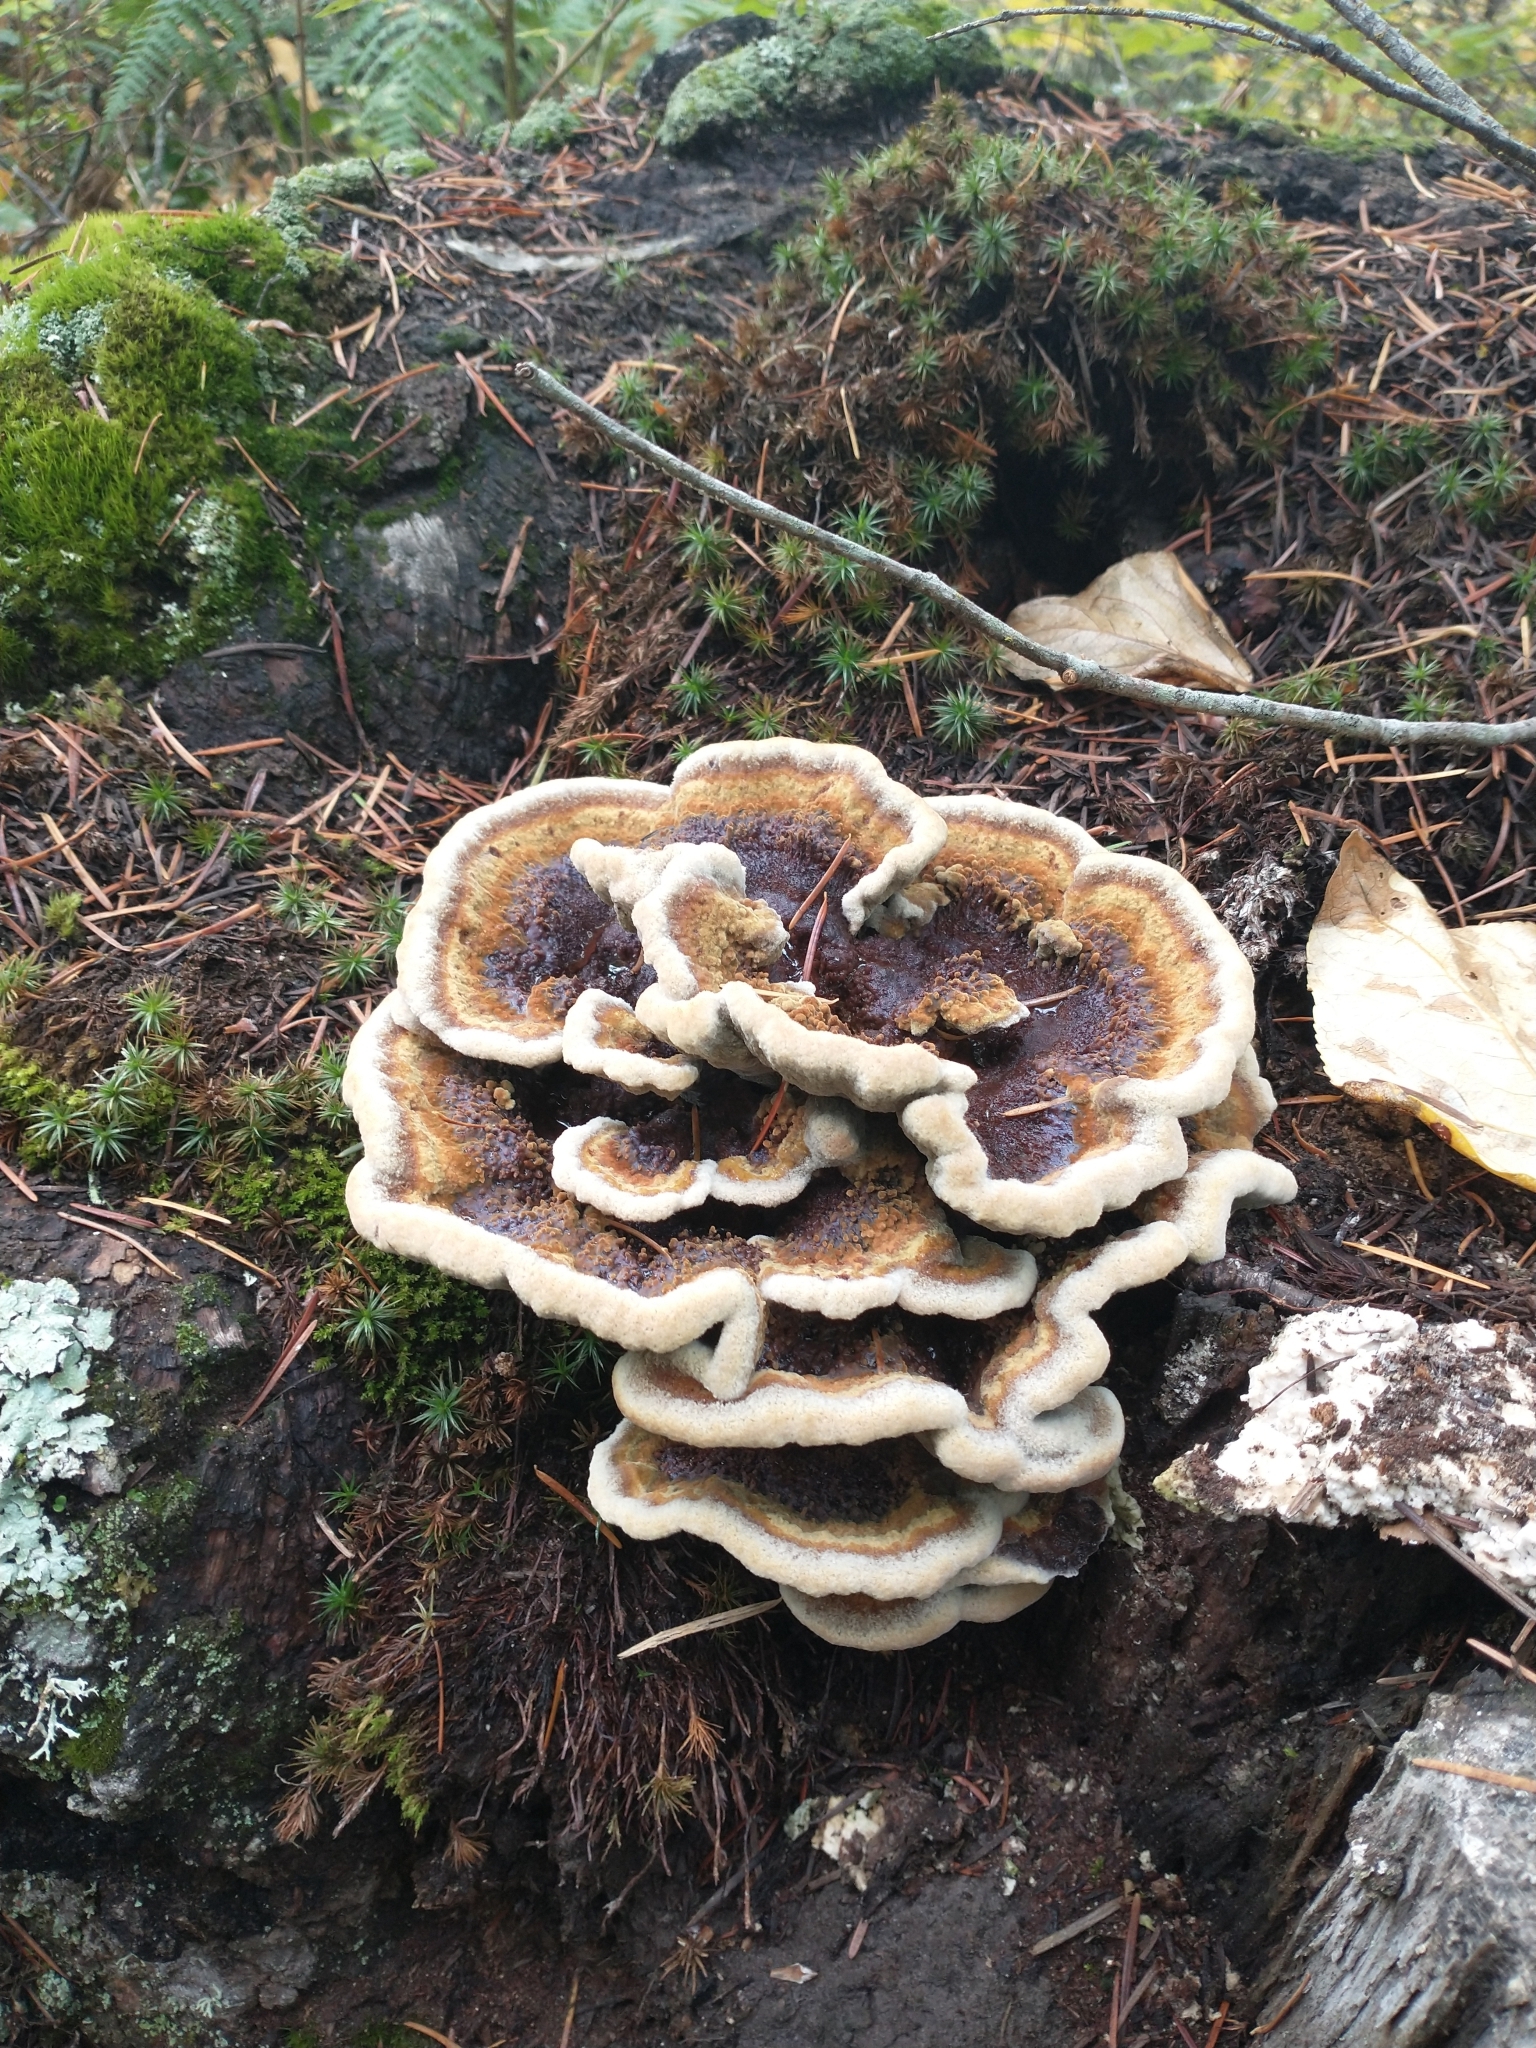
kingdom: Fungi
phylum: Basidiomycota
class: Agaricomycetes
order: Polyporales
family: Laetiporaceae
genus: Phaeolus
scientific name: Phaeolus schweinitzii
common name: Dyer's mazegill
